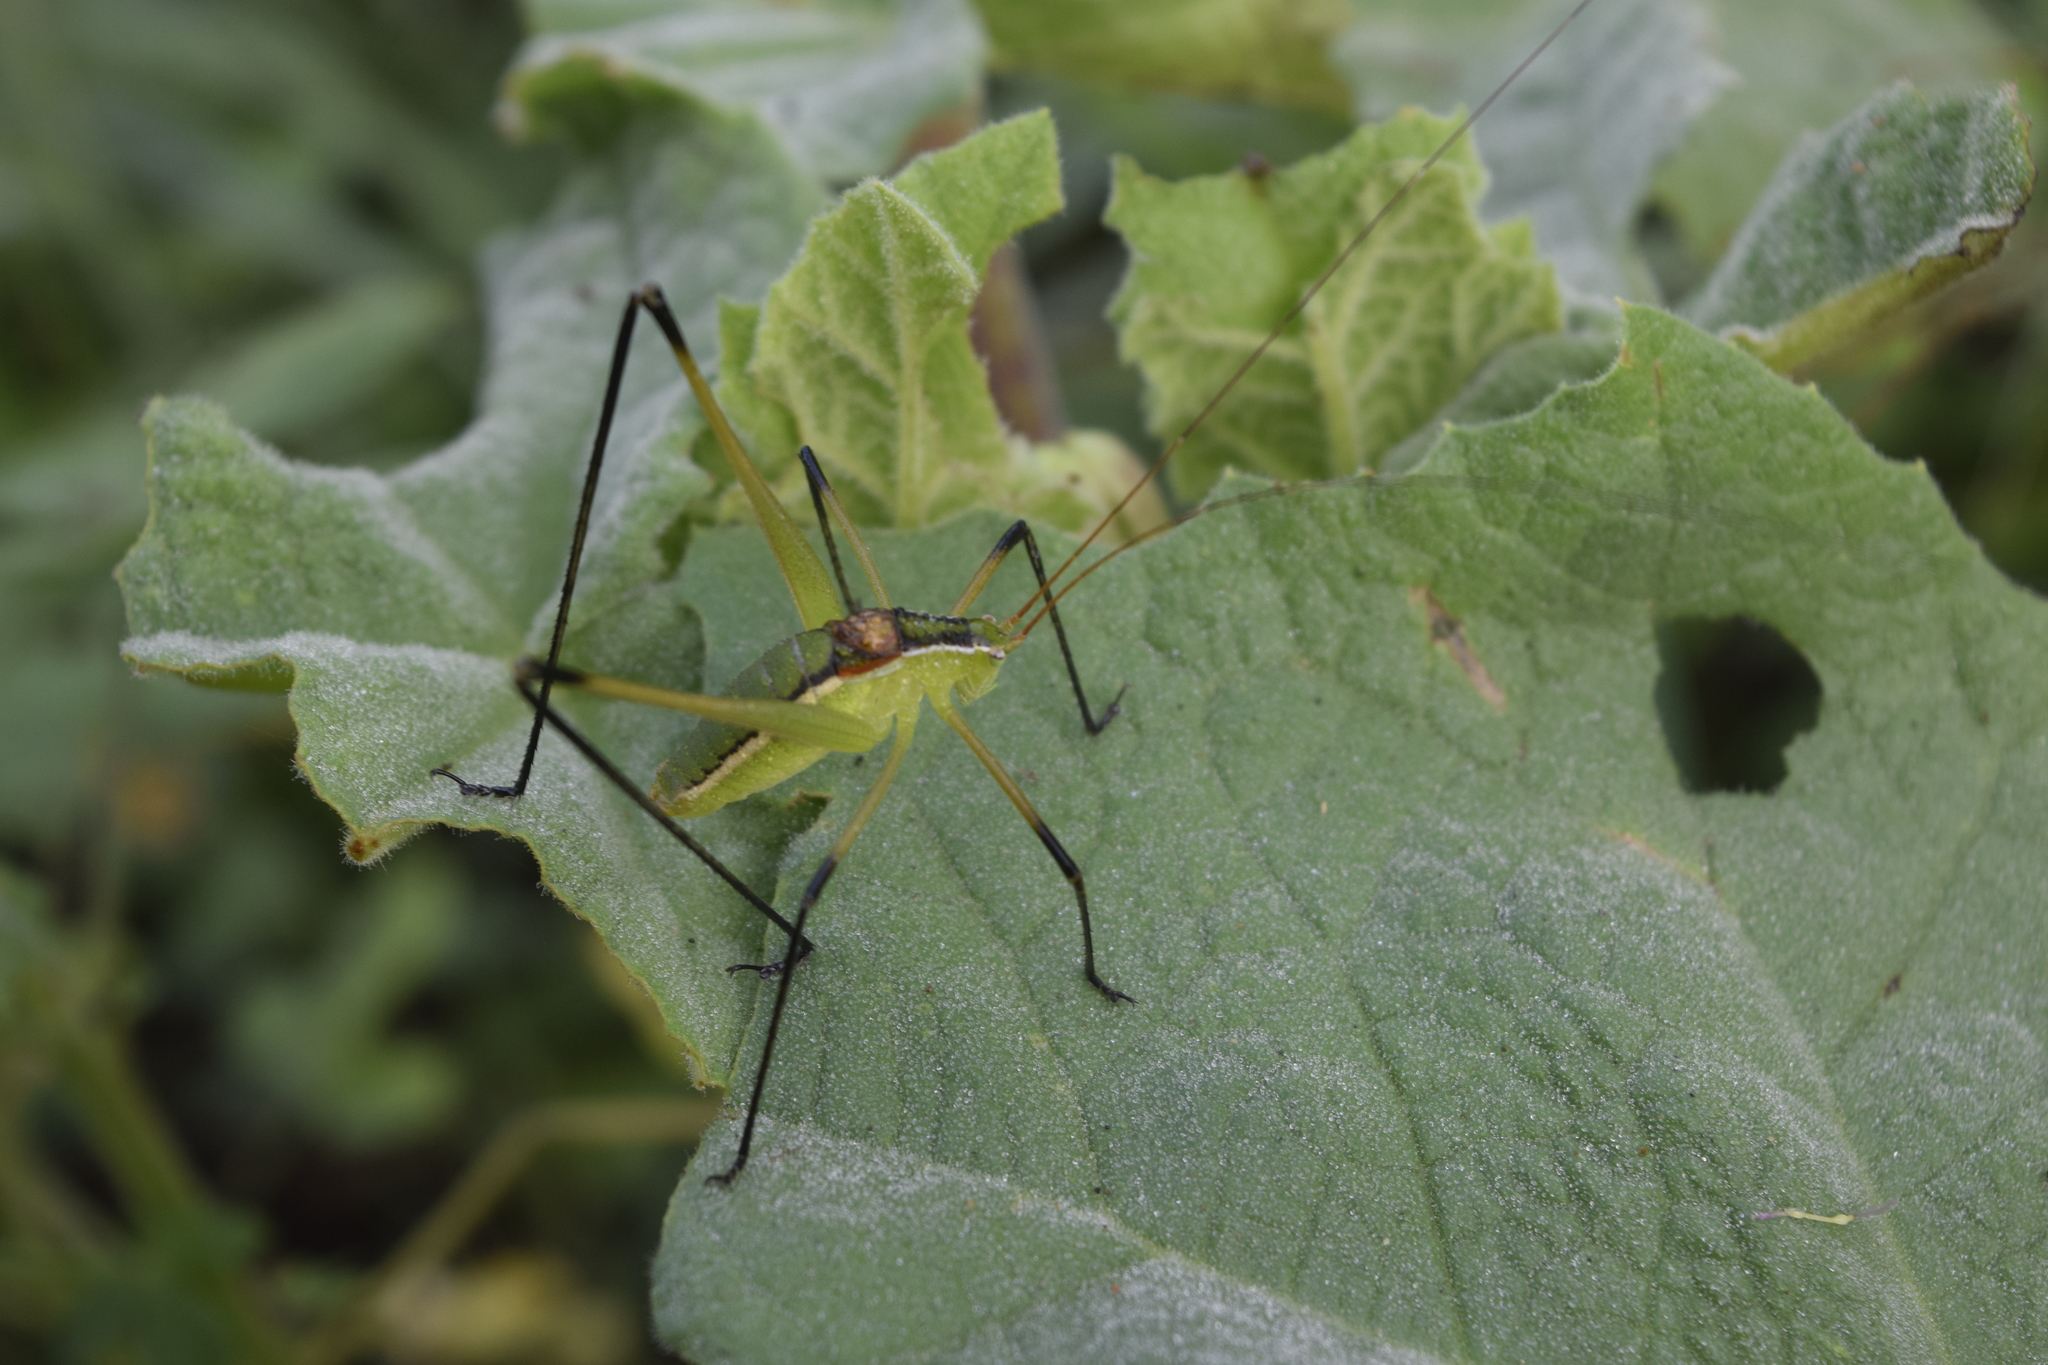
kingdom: Animalia
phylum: Arthropoda
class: Insecta
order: Orthoptera
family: Tettigoniidae
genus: Obolopteryx
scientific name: Obolopteryx castanea
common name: Chestnut short-winged katydid
